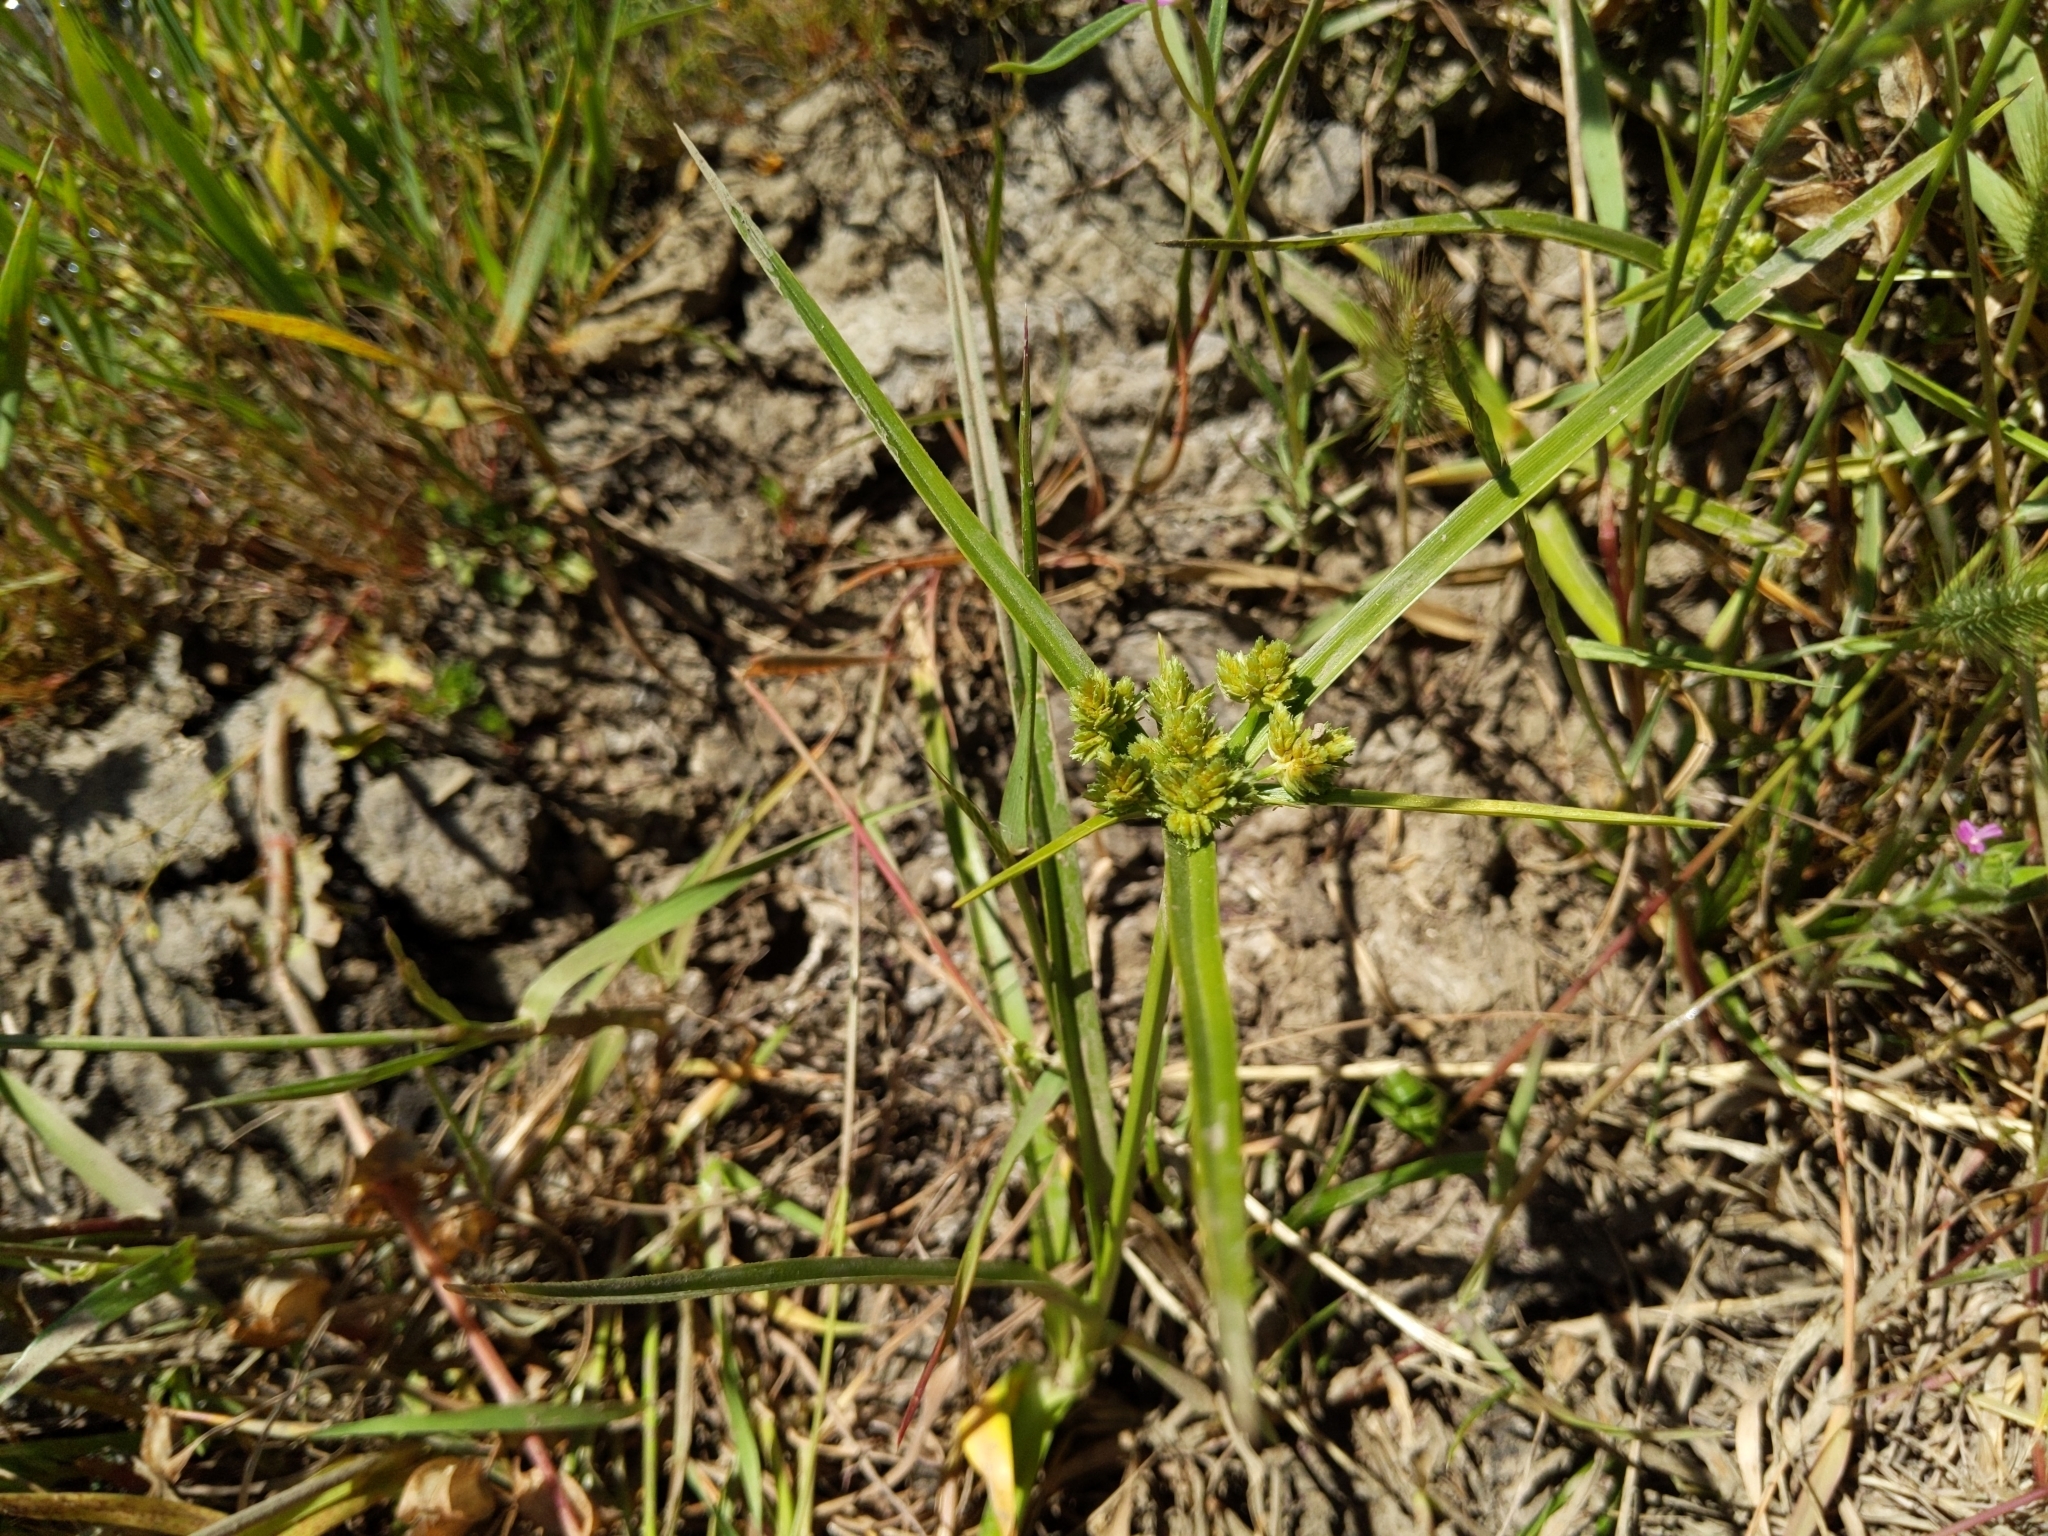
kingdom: Plantae
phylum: Tracheophyta
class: Liliopsida
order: Poales
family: Cyperaceae
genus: Cyperus
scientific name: Cyperus eragrostis
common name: Tall flatsedge
